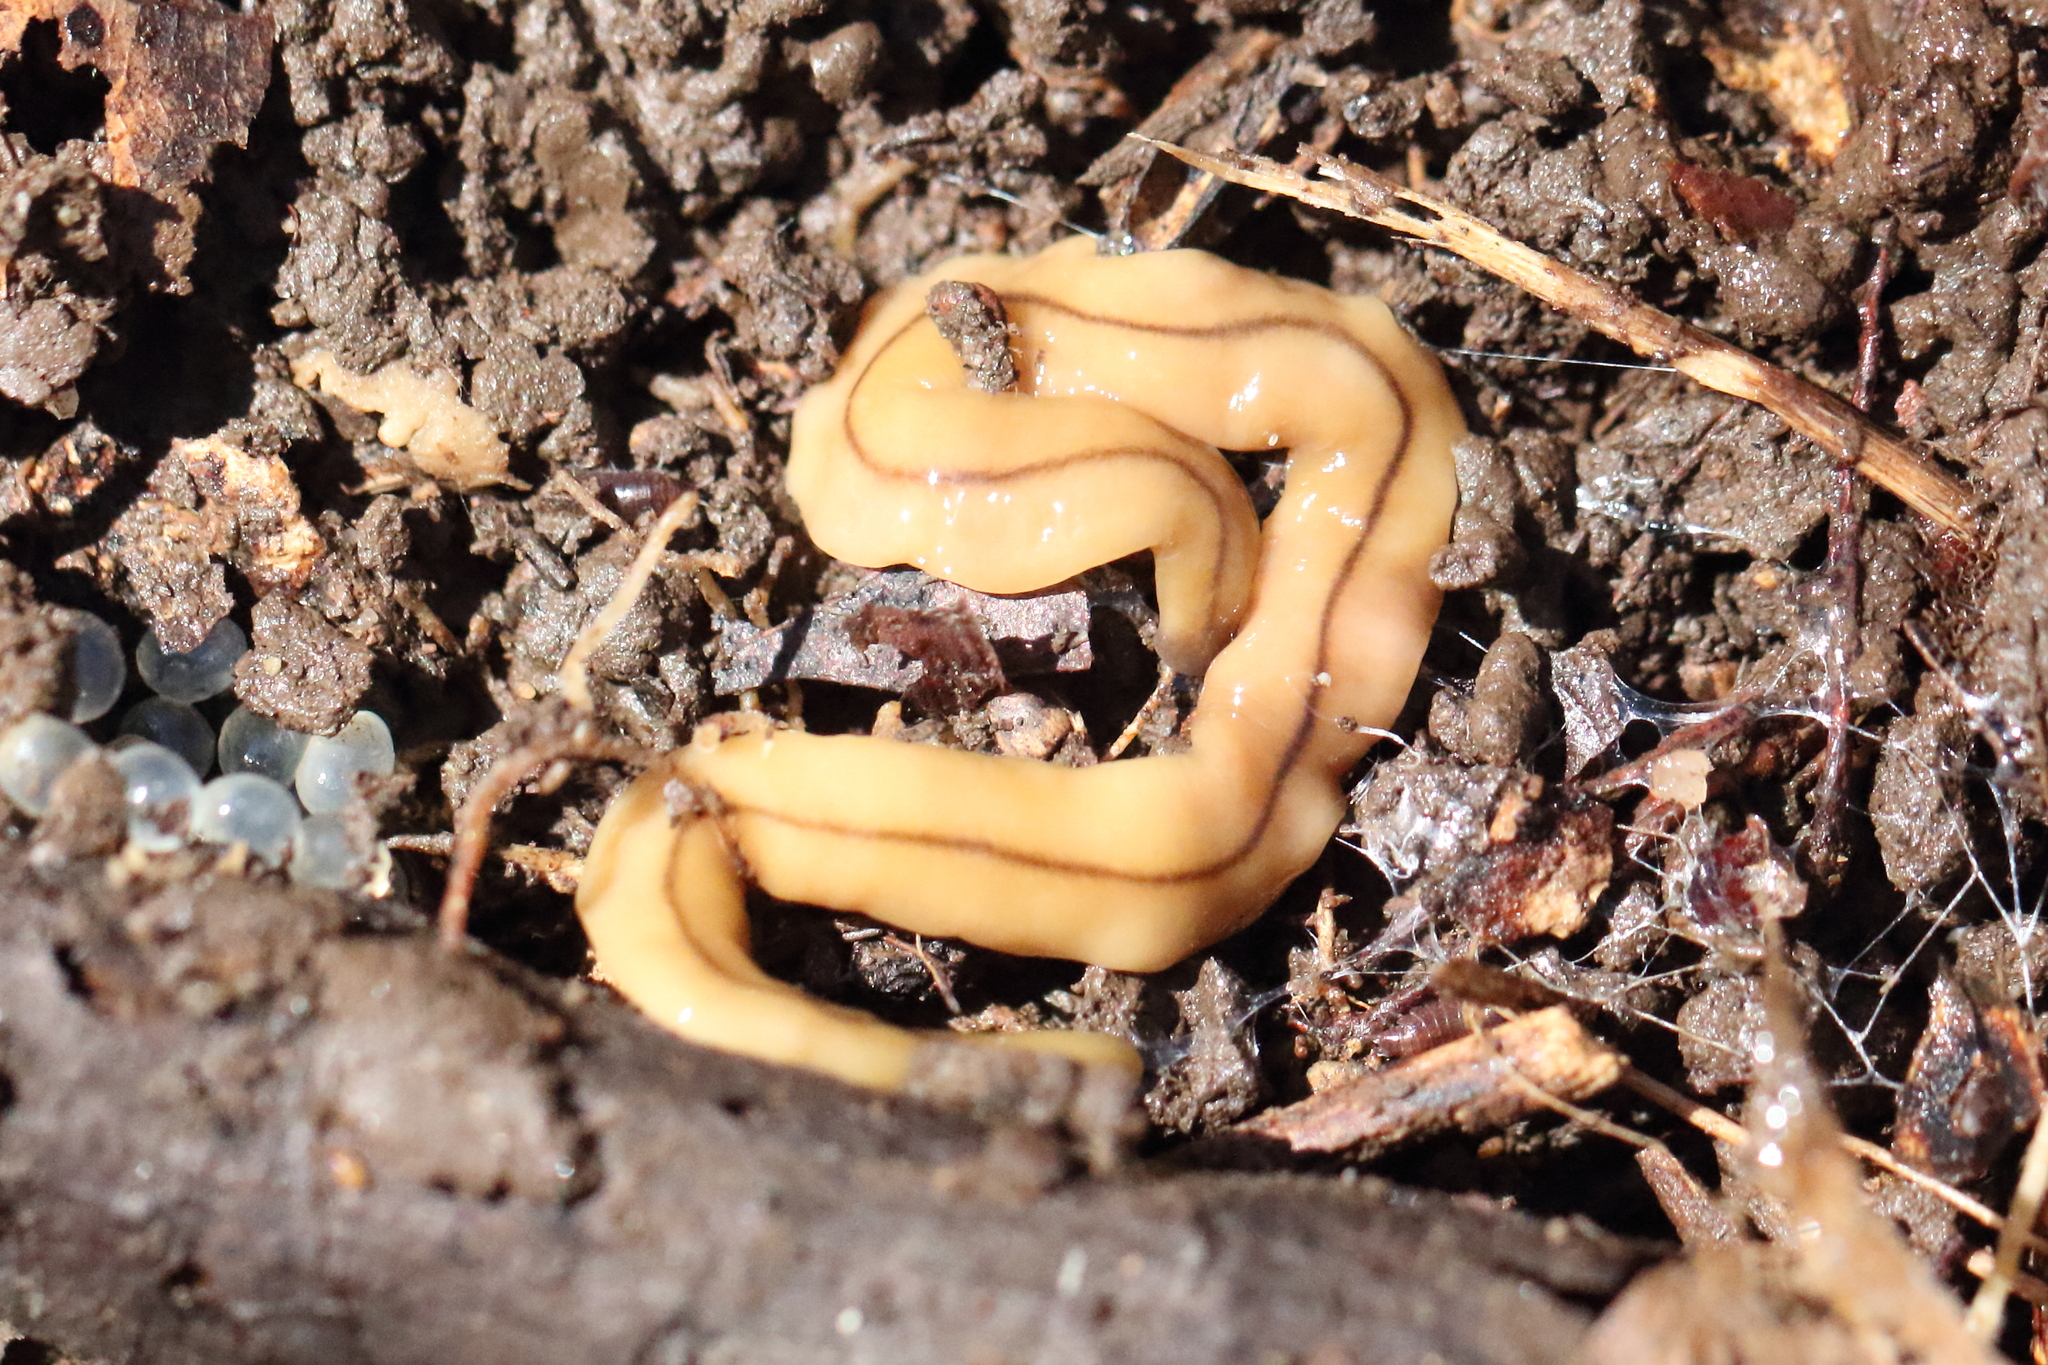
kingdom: Animalia
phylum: Platyhelminthes
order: Tricladida
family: Geoplanidae
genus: Bipalium
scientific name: Bipalium adventitium
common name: Land planarian
